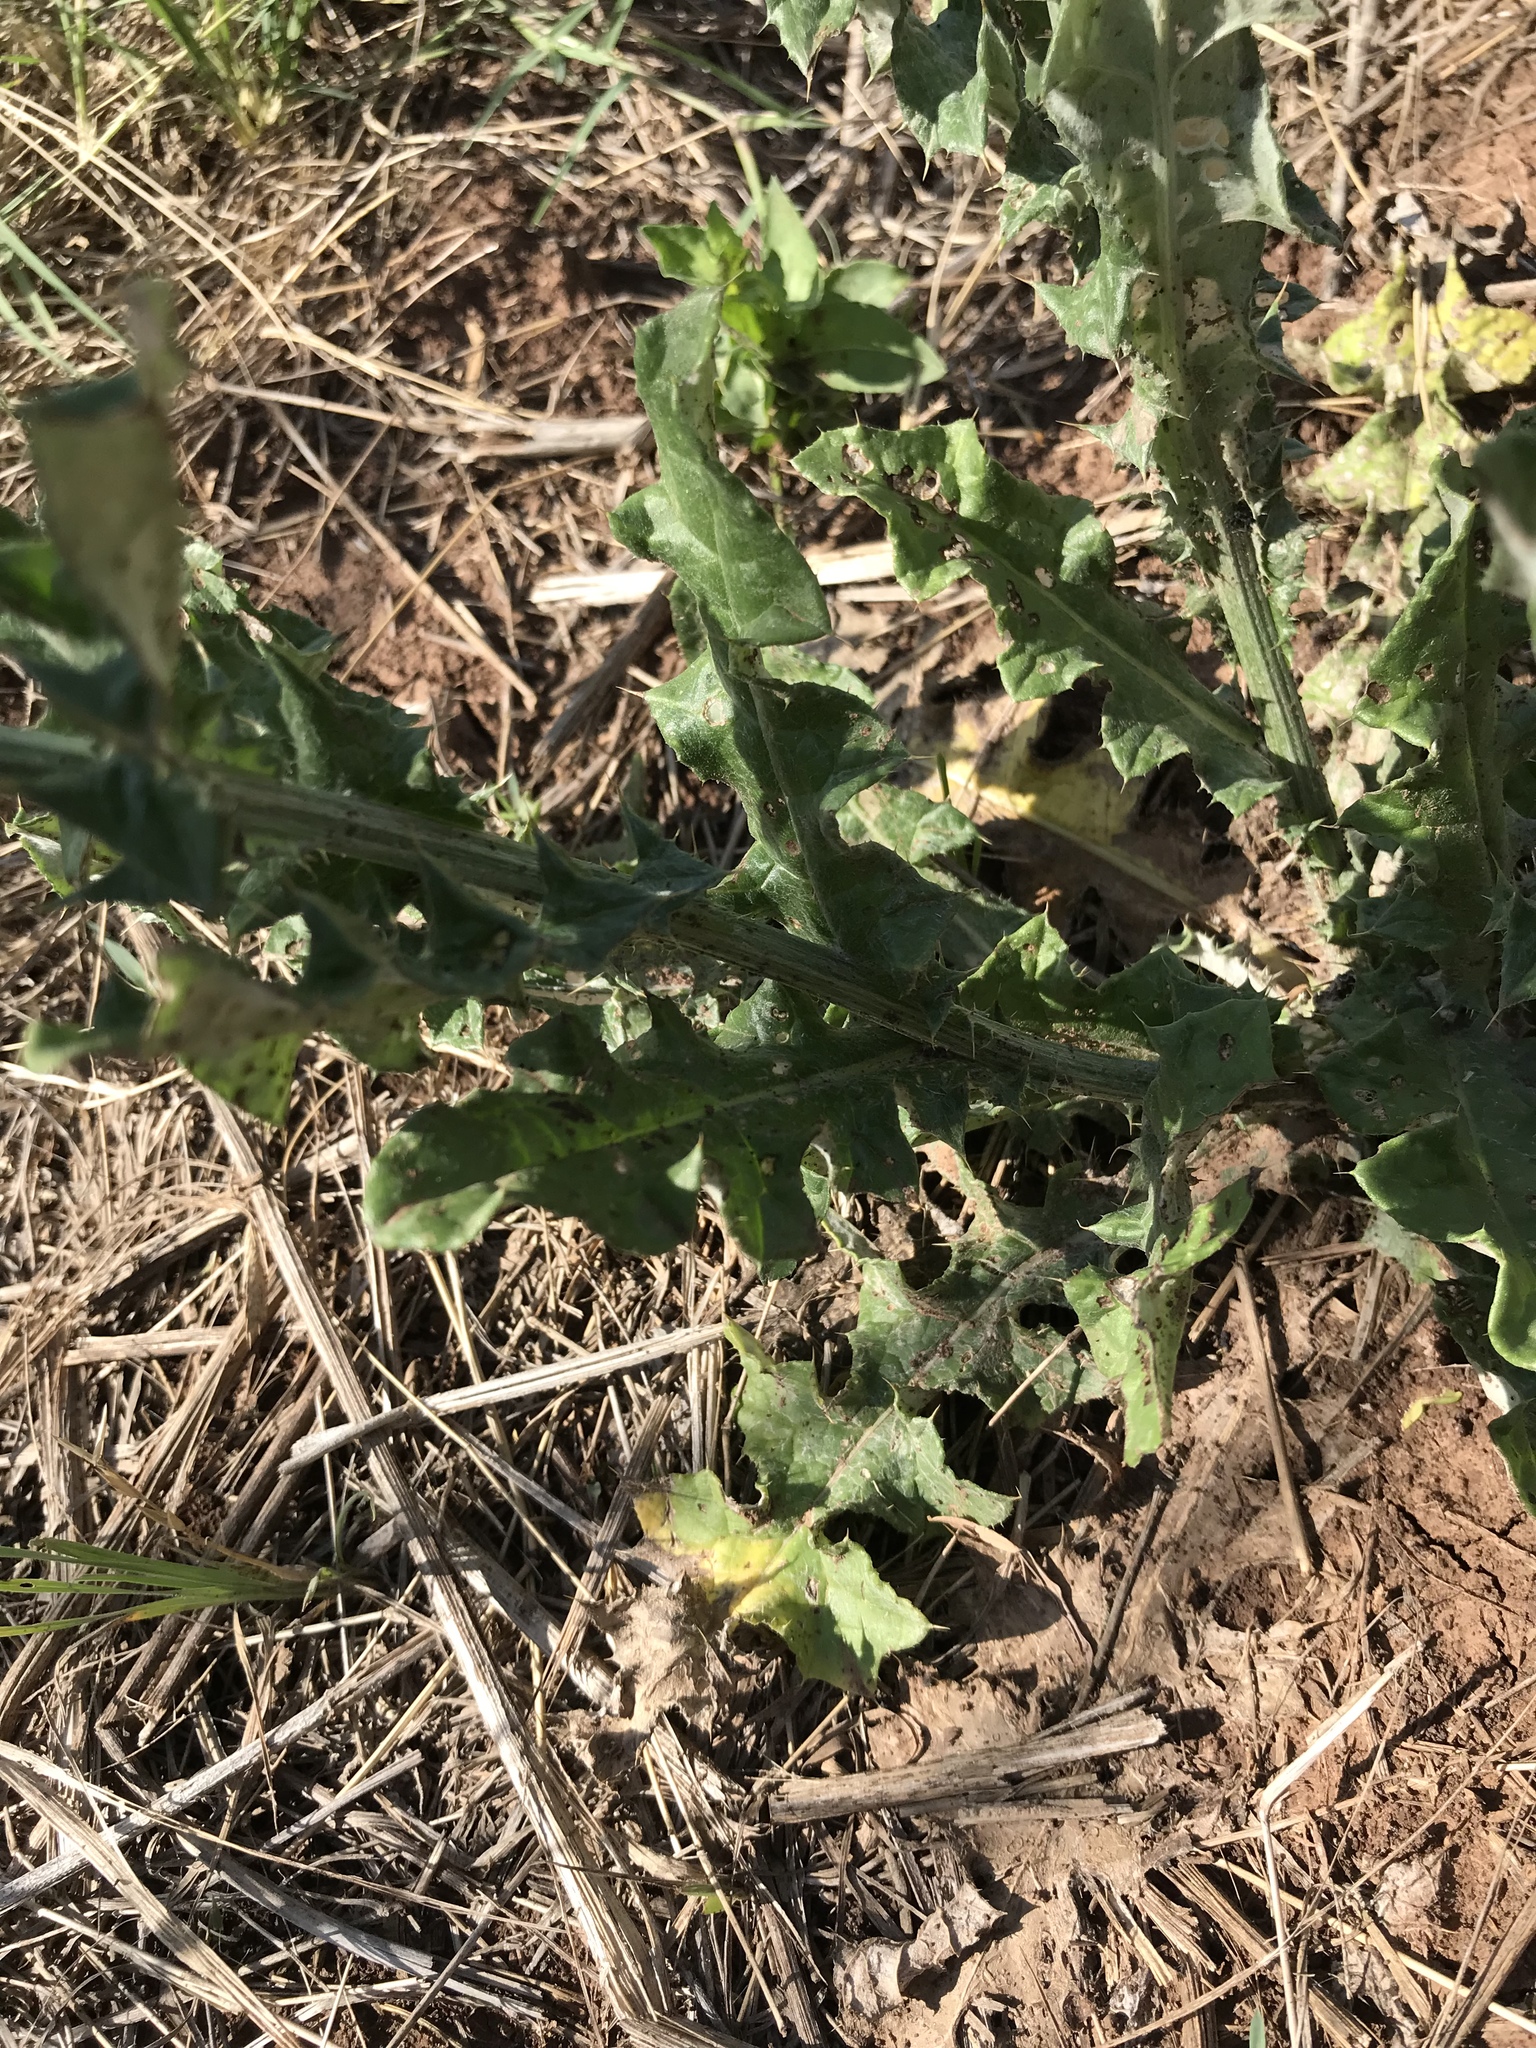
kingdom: Plantae
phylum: Tracheophyta
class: Magnoliopsida
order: Asterales
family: Asteraceae
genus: Cirsium
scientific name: Cirsium texanum
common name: Texas purple thistle
